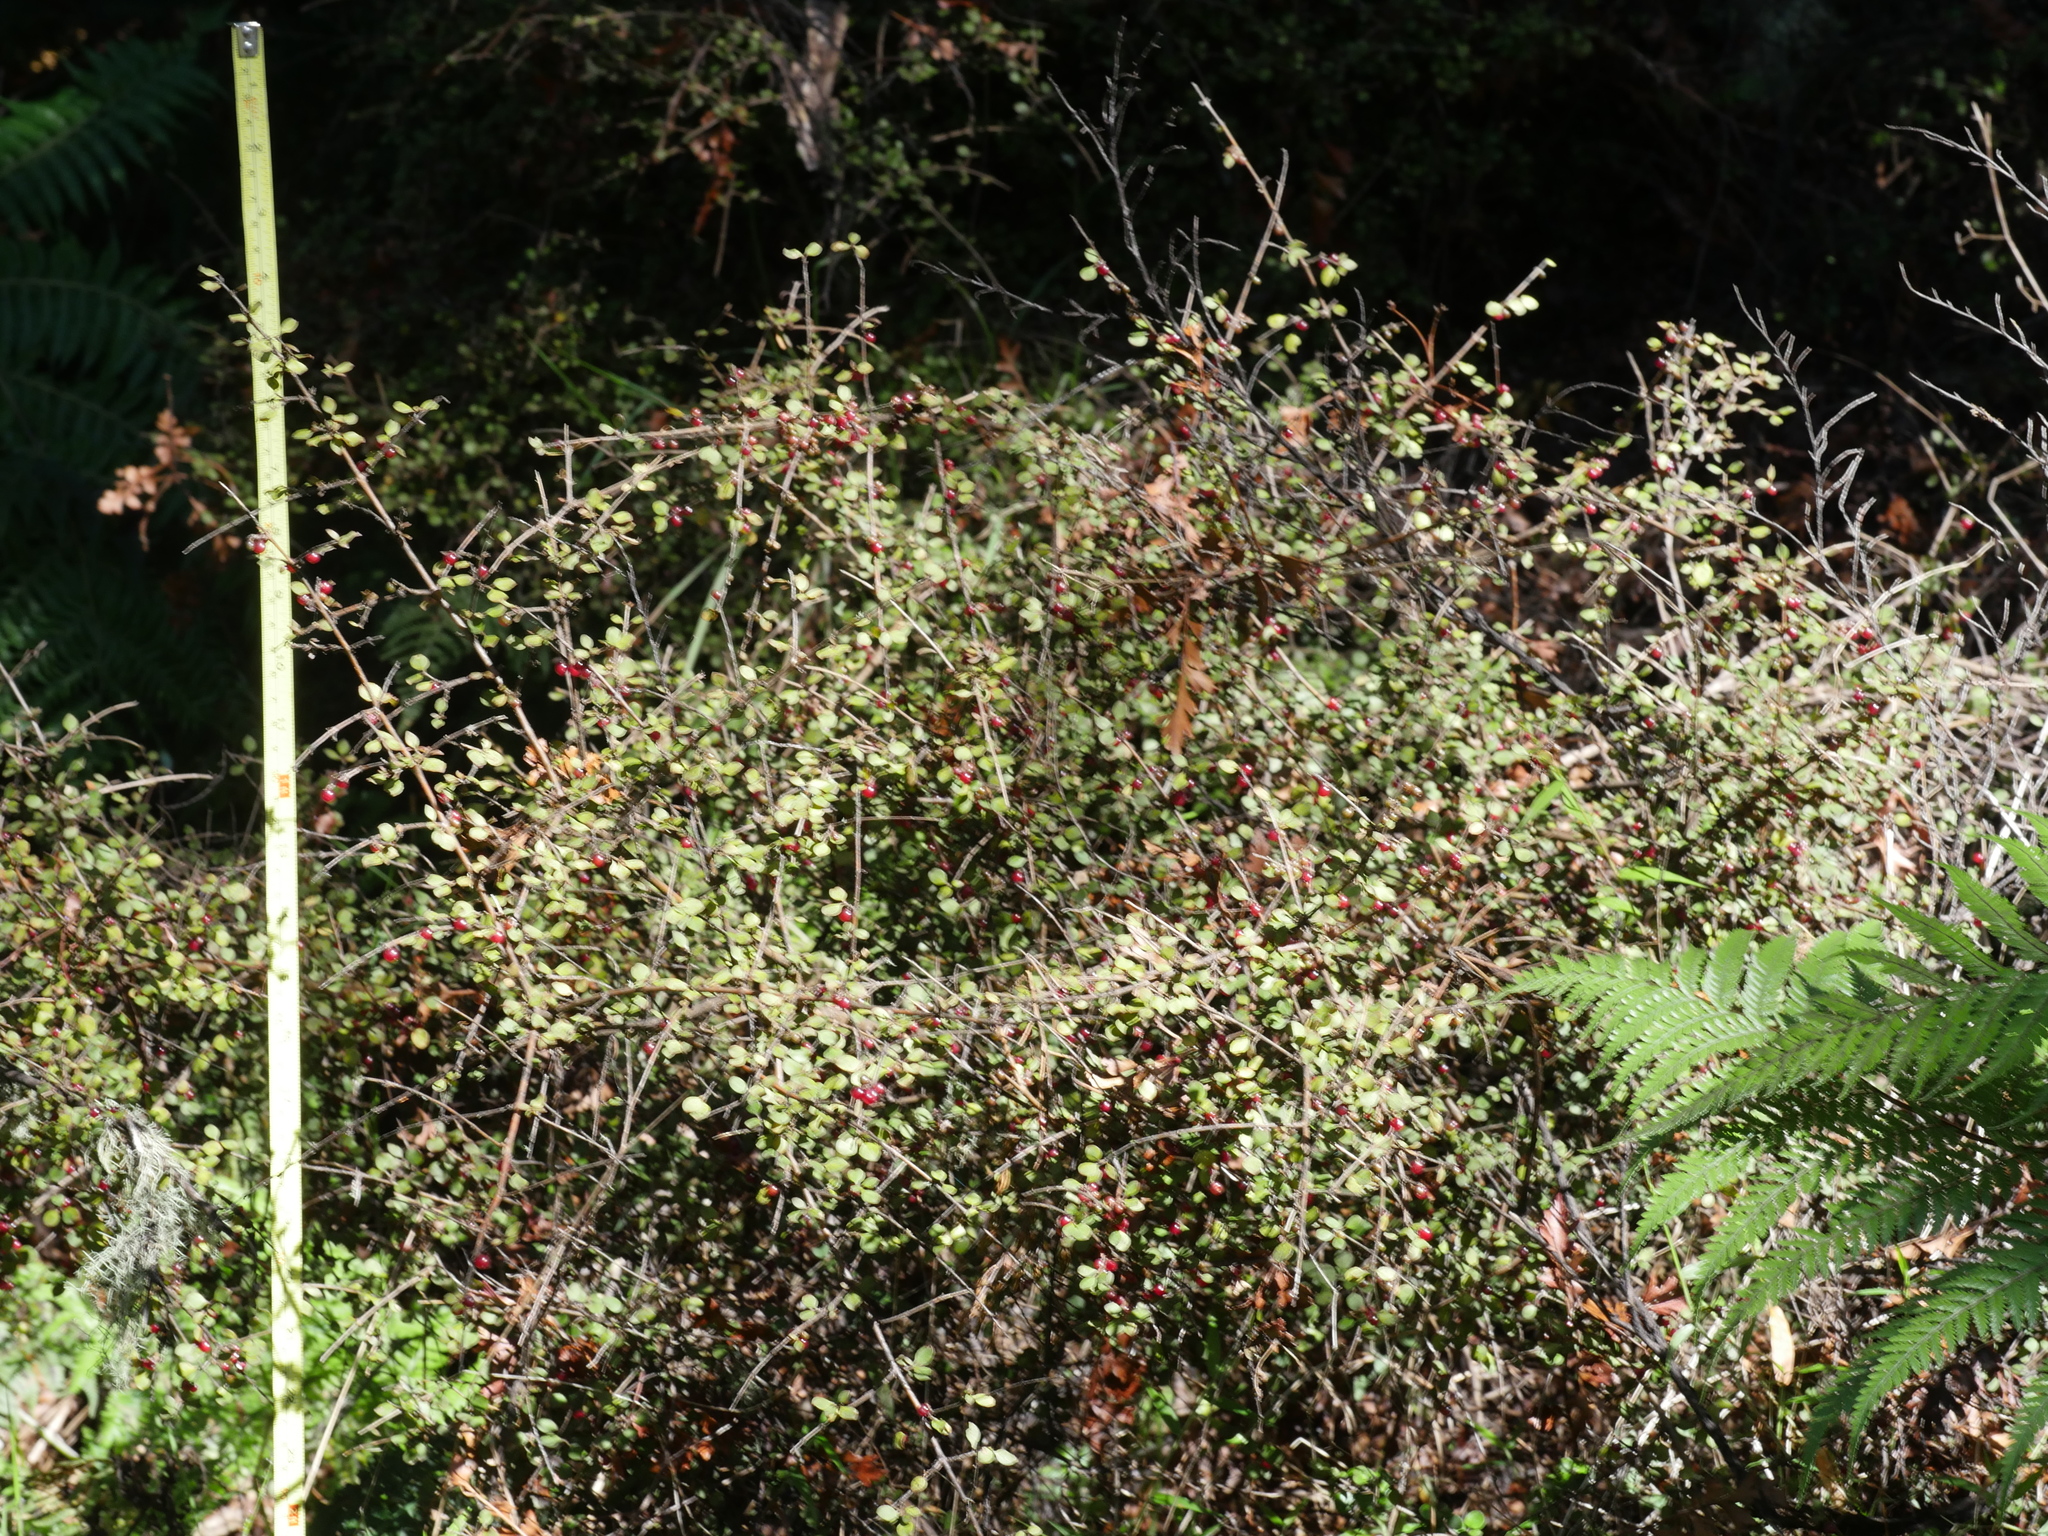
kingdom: Plantae
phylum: Tracheophyta
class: Magnoliopsida
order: Gentianales
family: Rubiaceae
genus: Coprosma
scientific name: Coprosma rhamnoides
